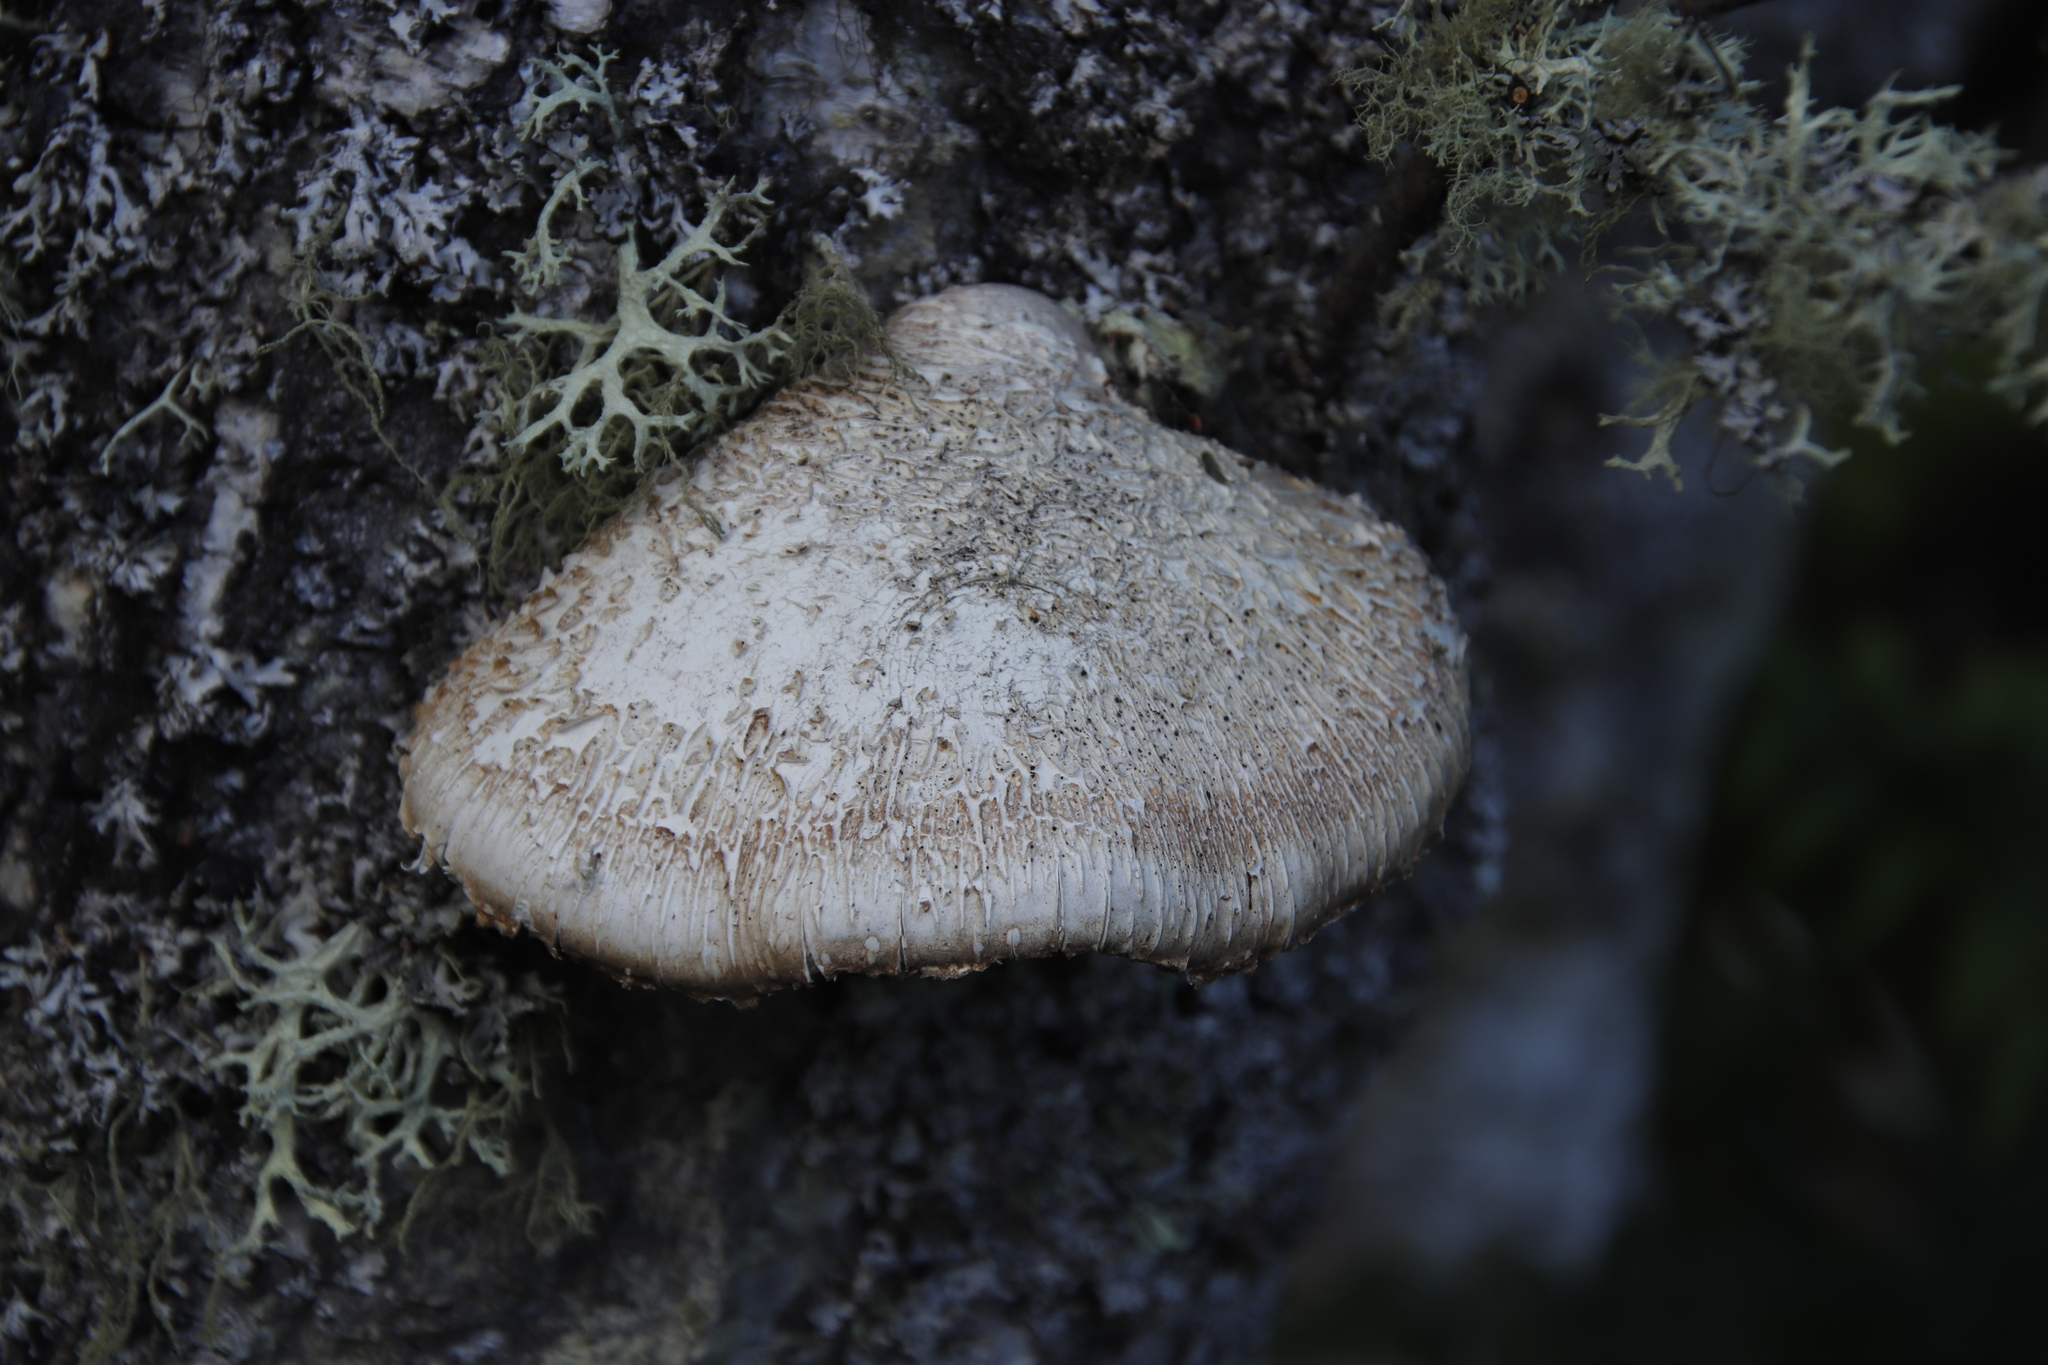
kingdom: Fungi
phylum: Basidiomycota
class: Agaricomycetes
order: Polyporales
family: Fomitopsidaceae
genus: Fomitopsis
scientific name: Fomitopsis betulina
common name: Birch polypore
